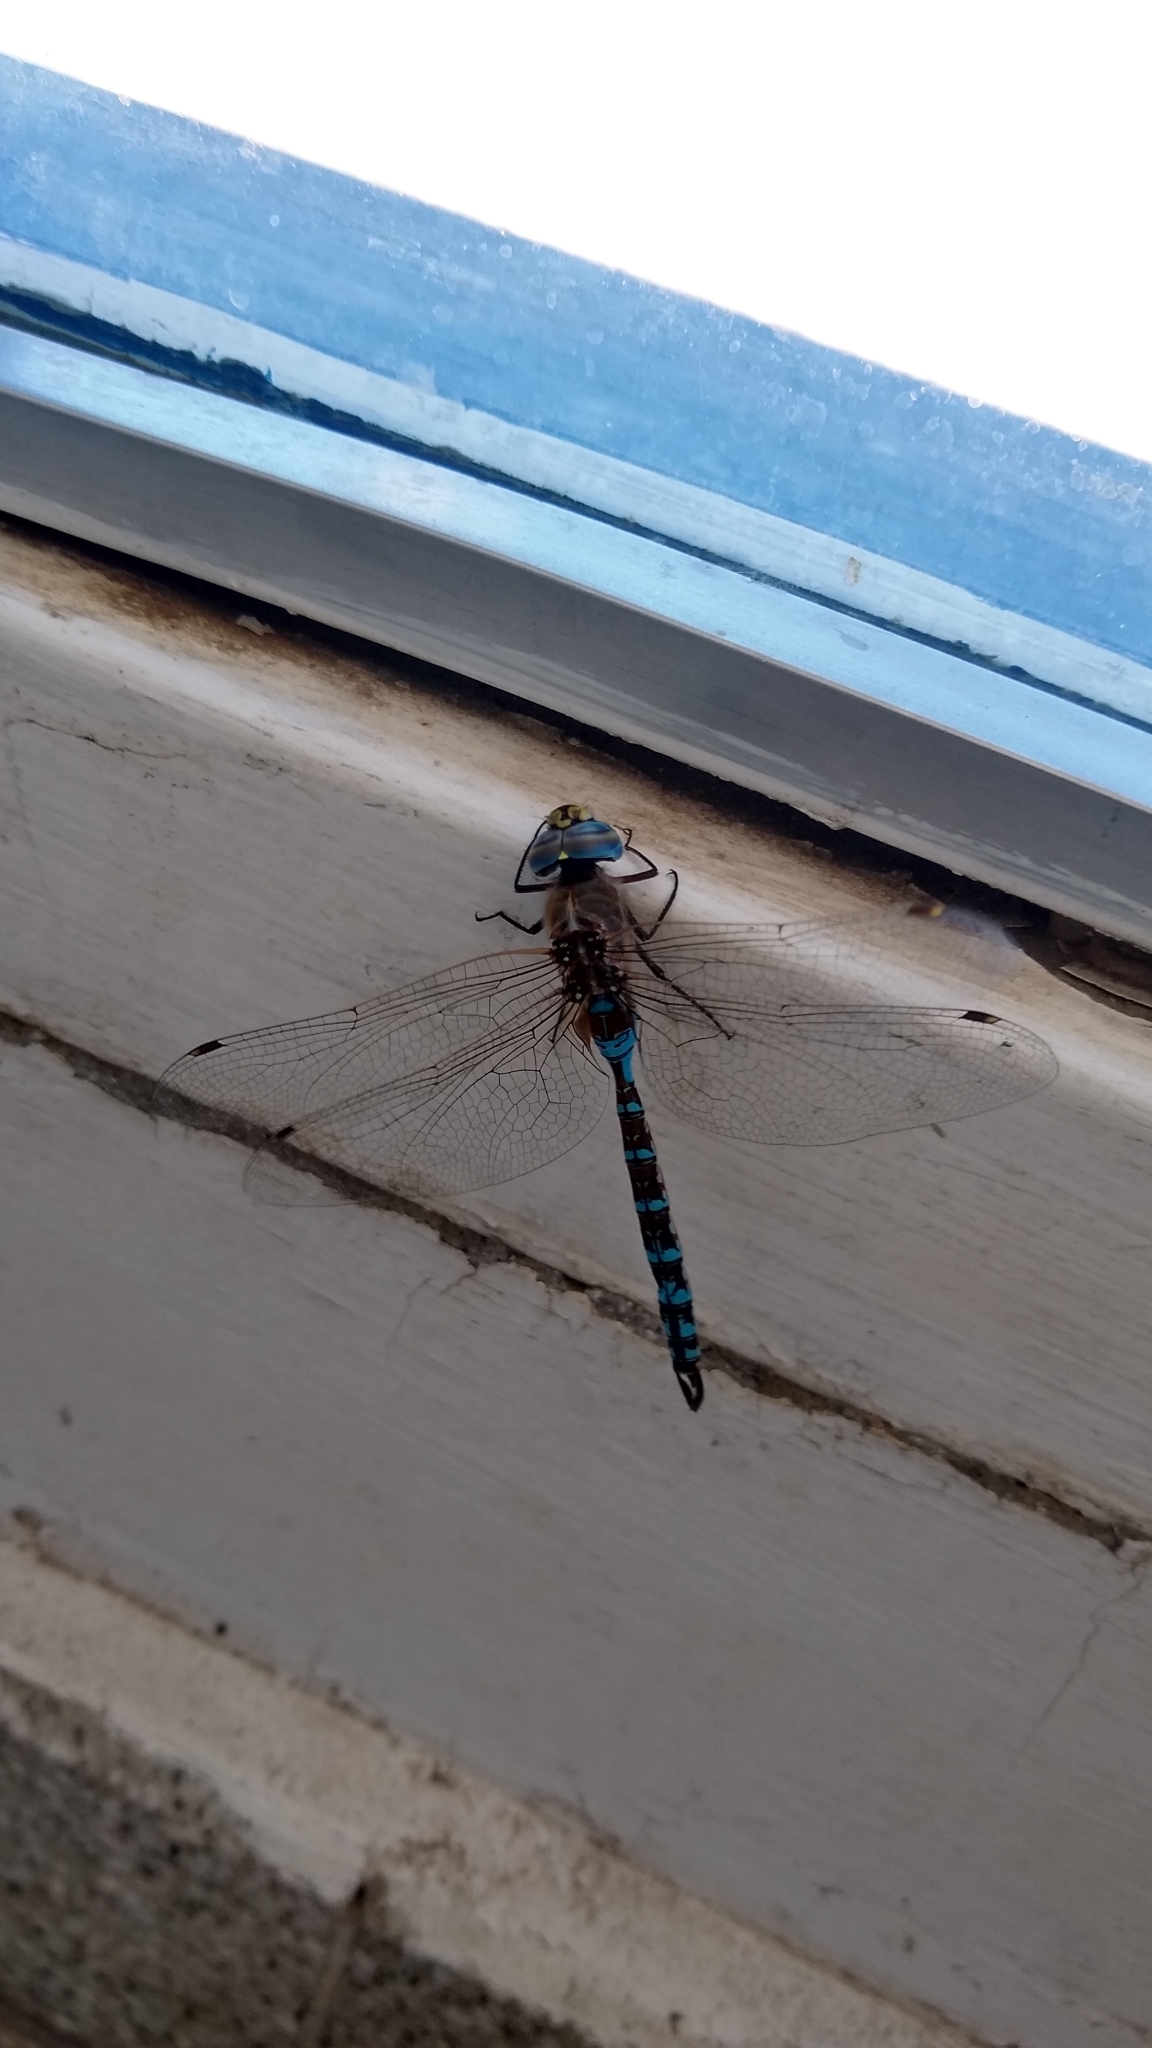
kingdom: Animalia
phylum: Arthropoda
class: Insecta
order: Odonata
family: Aeshnidae
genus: Rhionaeschna
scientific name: Rhionaeschna absoluta
